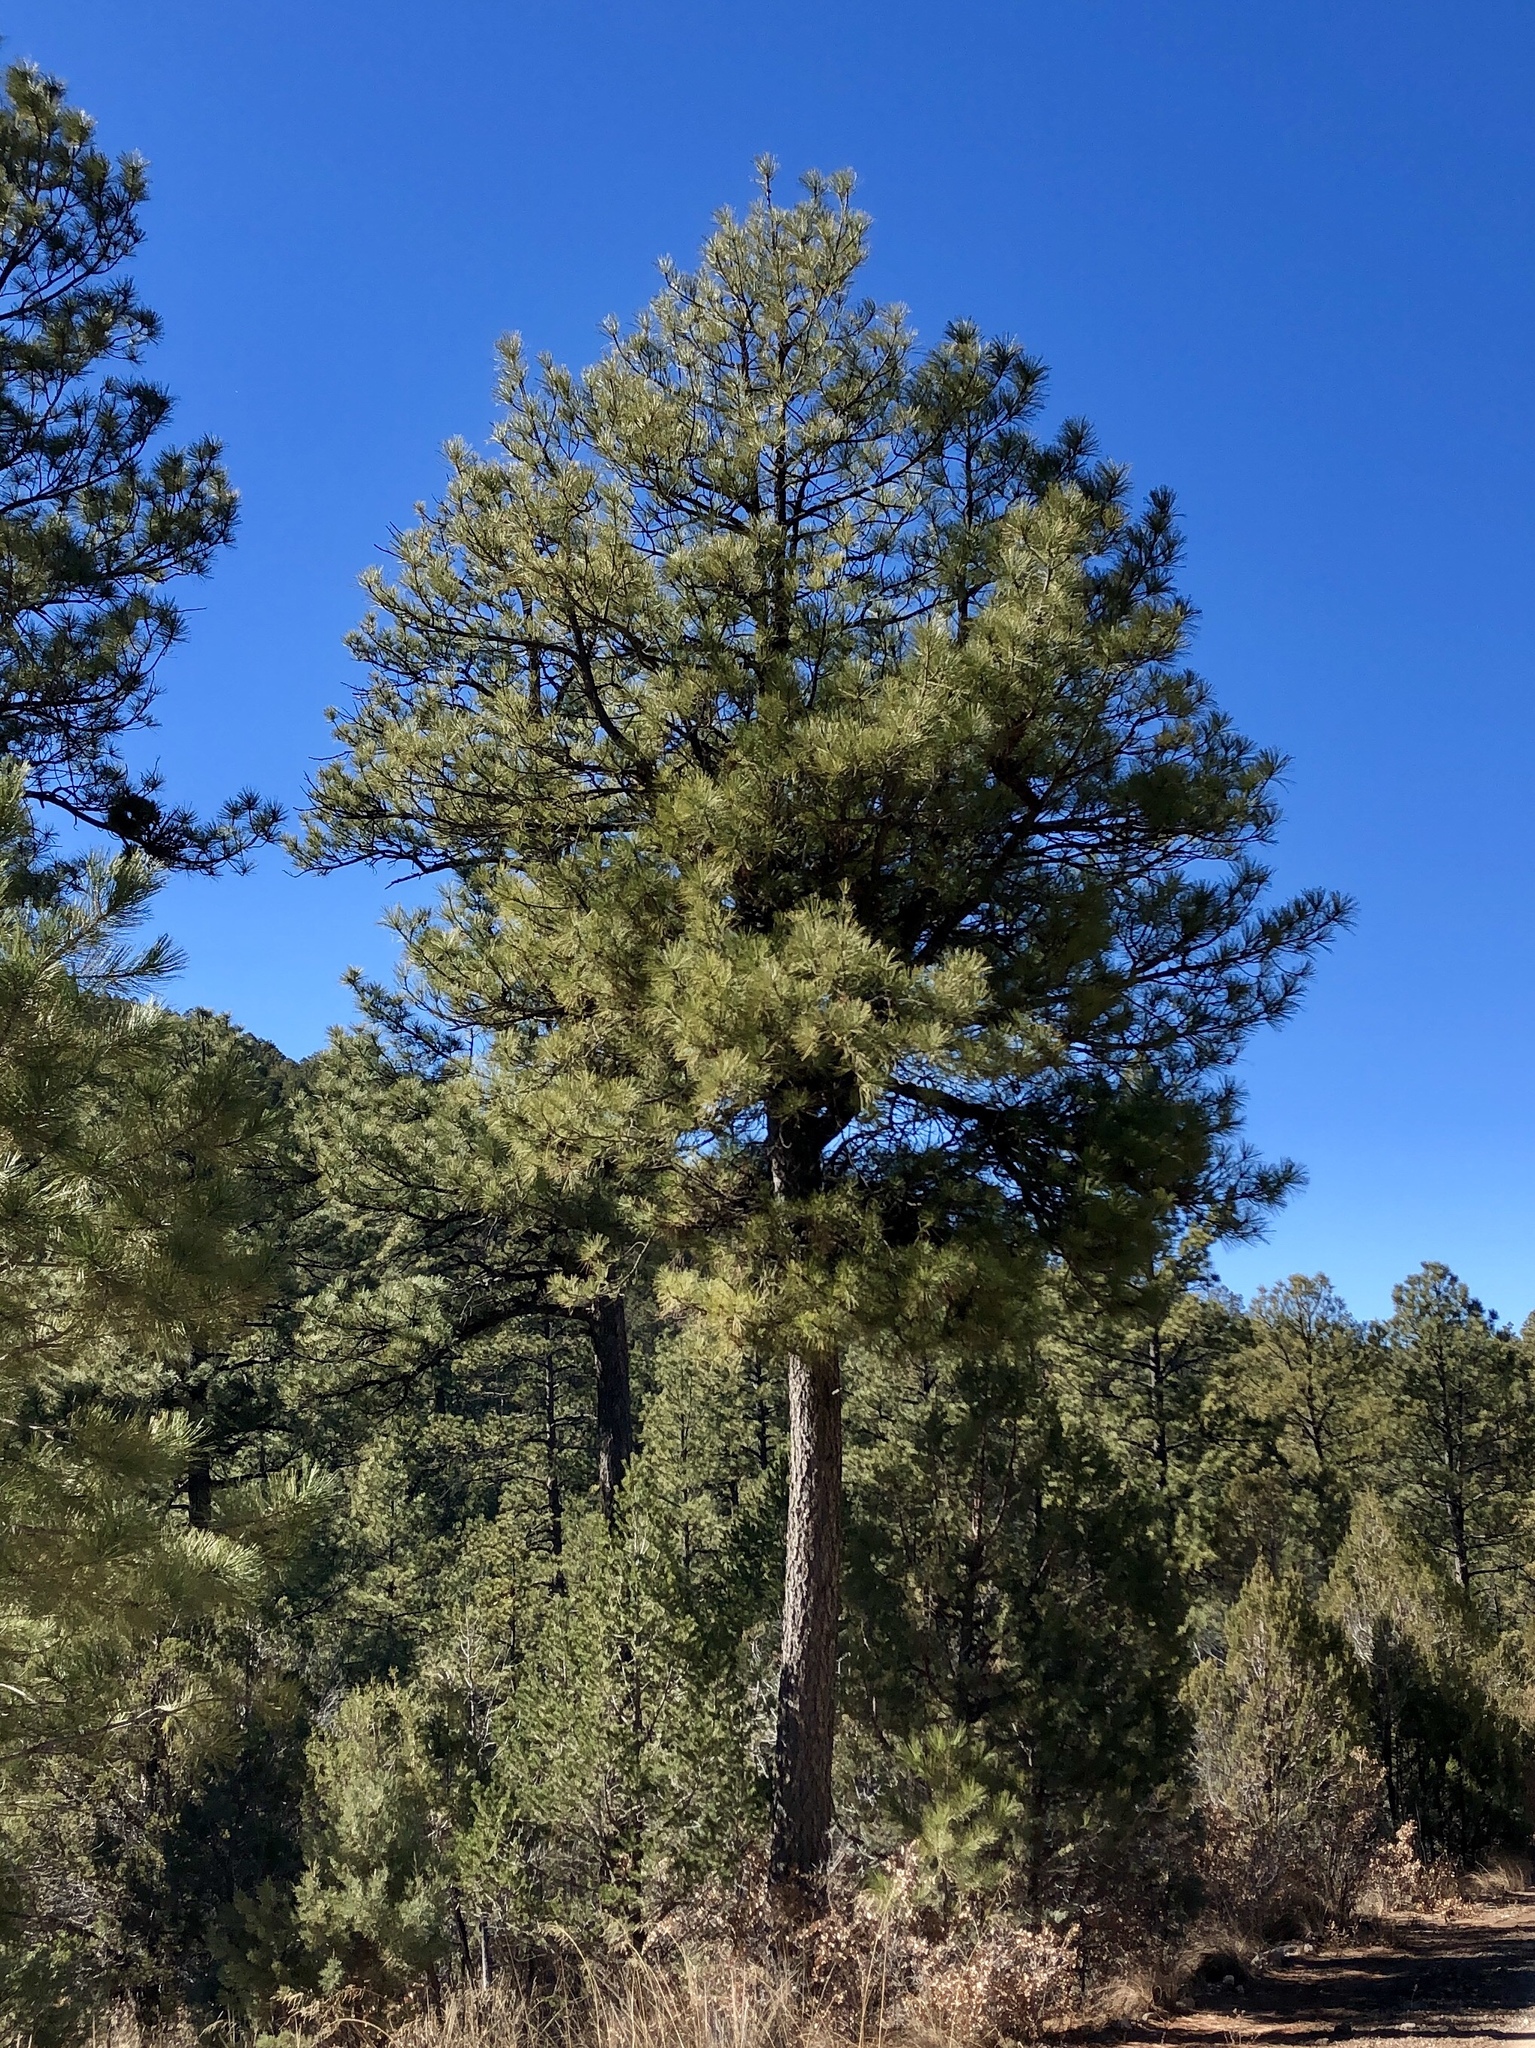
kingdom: Plantae
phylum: Tracheophyta
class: Pinopsida
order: Pinales
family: Pinaceae
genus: Pinus
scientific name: Pinus ponderosa
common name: Western yellow-pine
